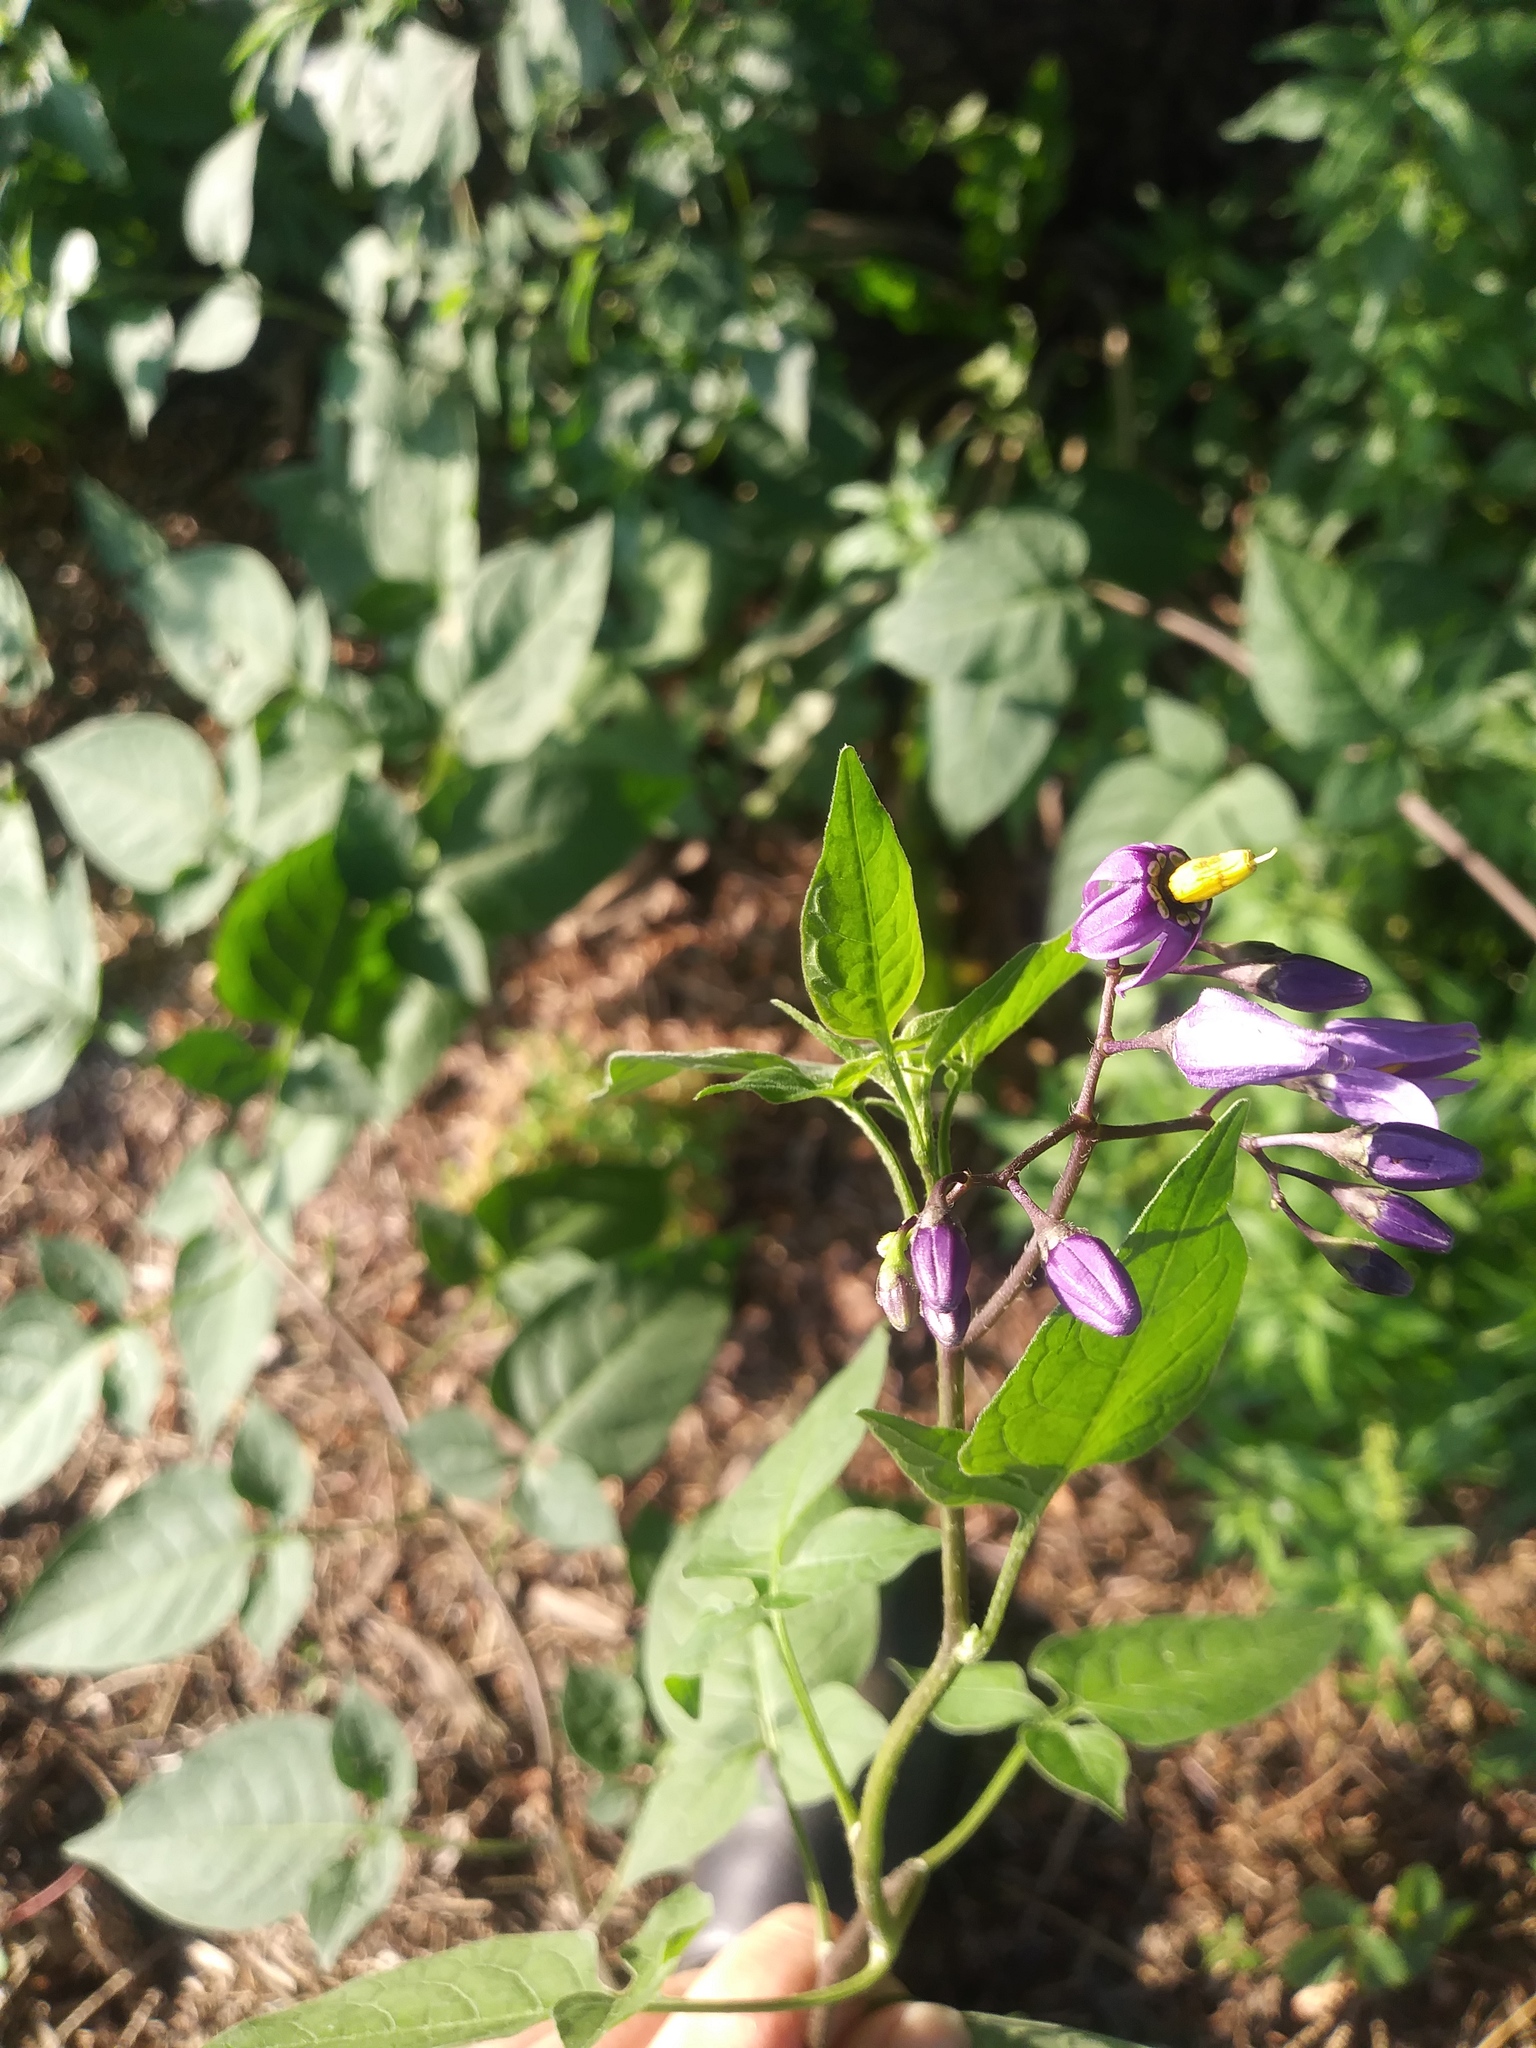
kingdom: Plantae
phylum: Tracheophyta
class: Magnoliopsida
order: Solanales
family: Solanaceae
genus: Solanum
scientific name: Solanum dulcamara
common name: Climbing nightshade
